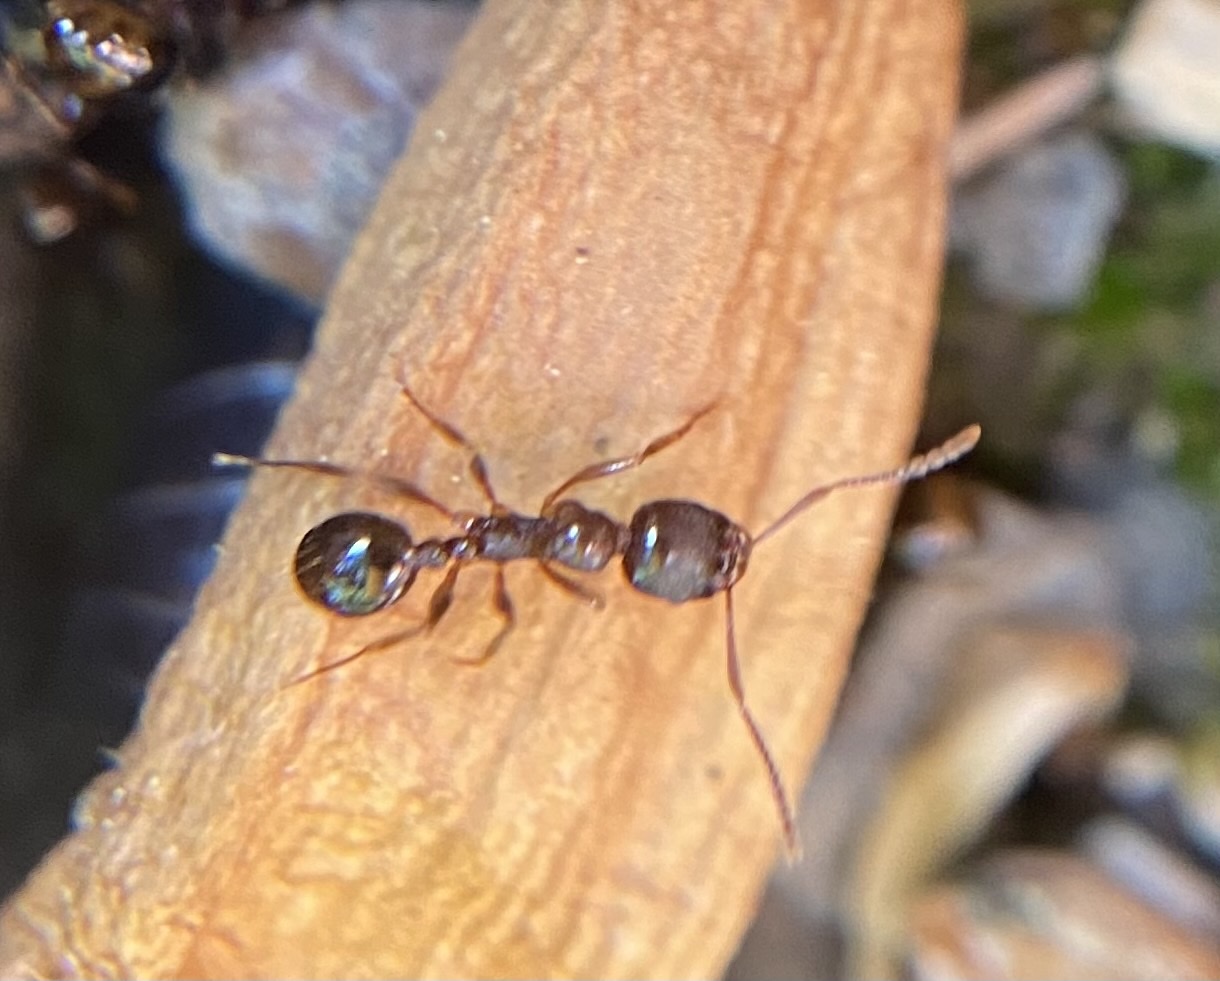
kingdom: Animalia
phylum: Arthropoda
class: Insecta
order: Hymenoptera
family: Formicidae
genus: Aphaenogaster
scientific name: Aphaenogaster occidentalis
